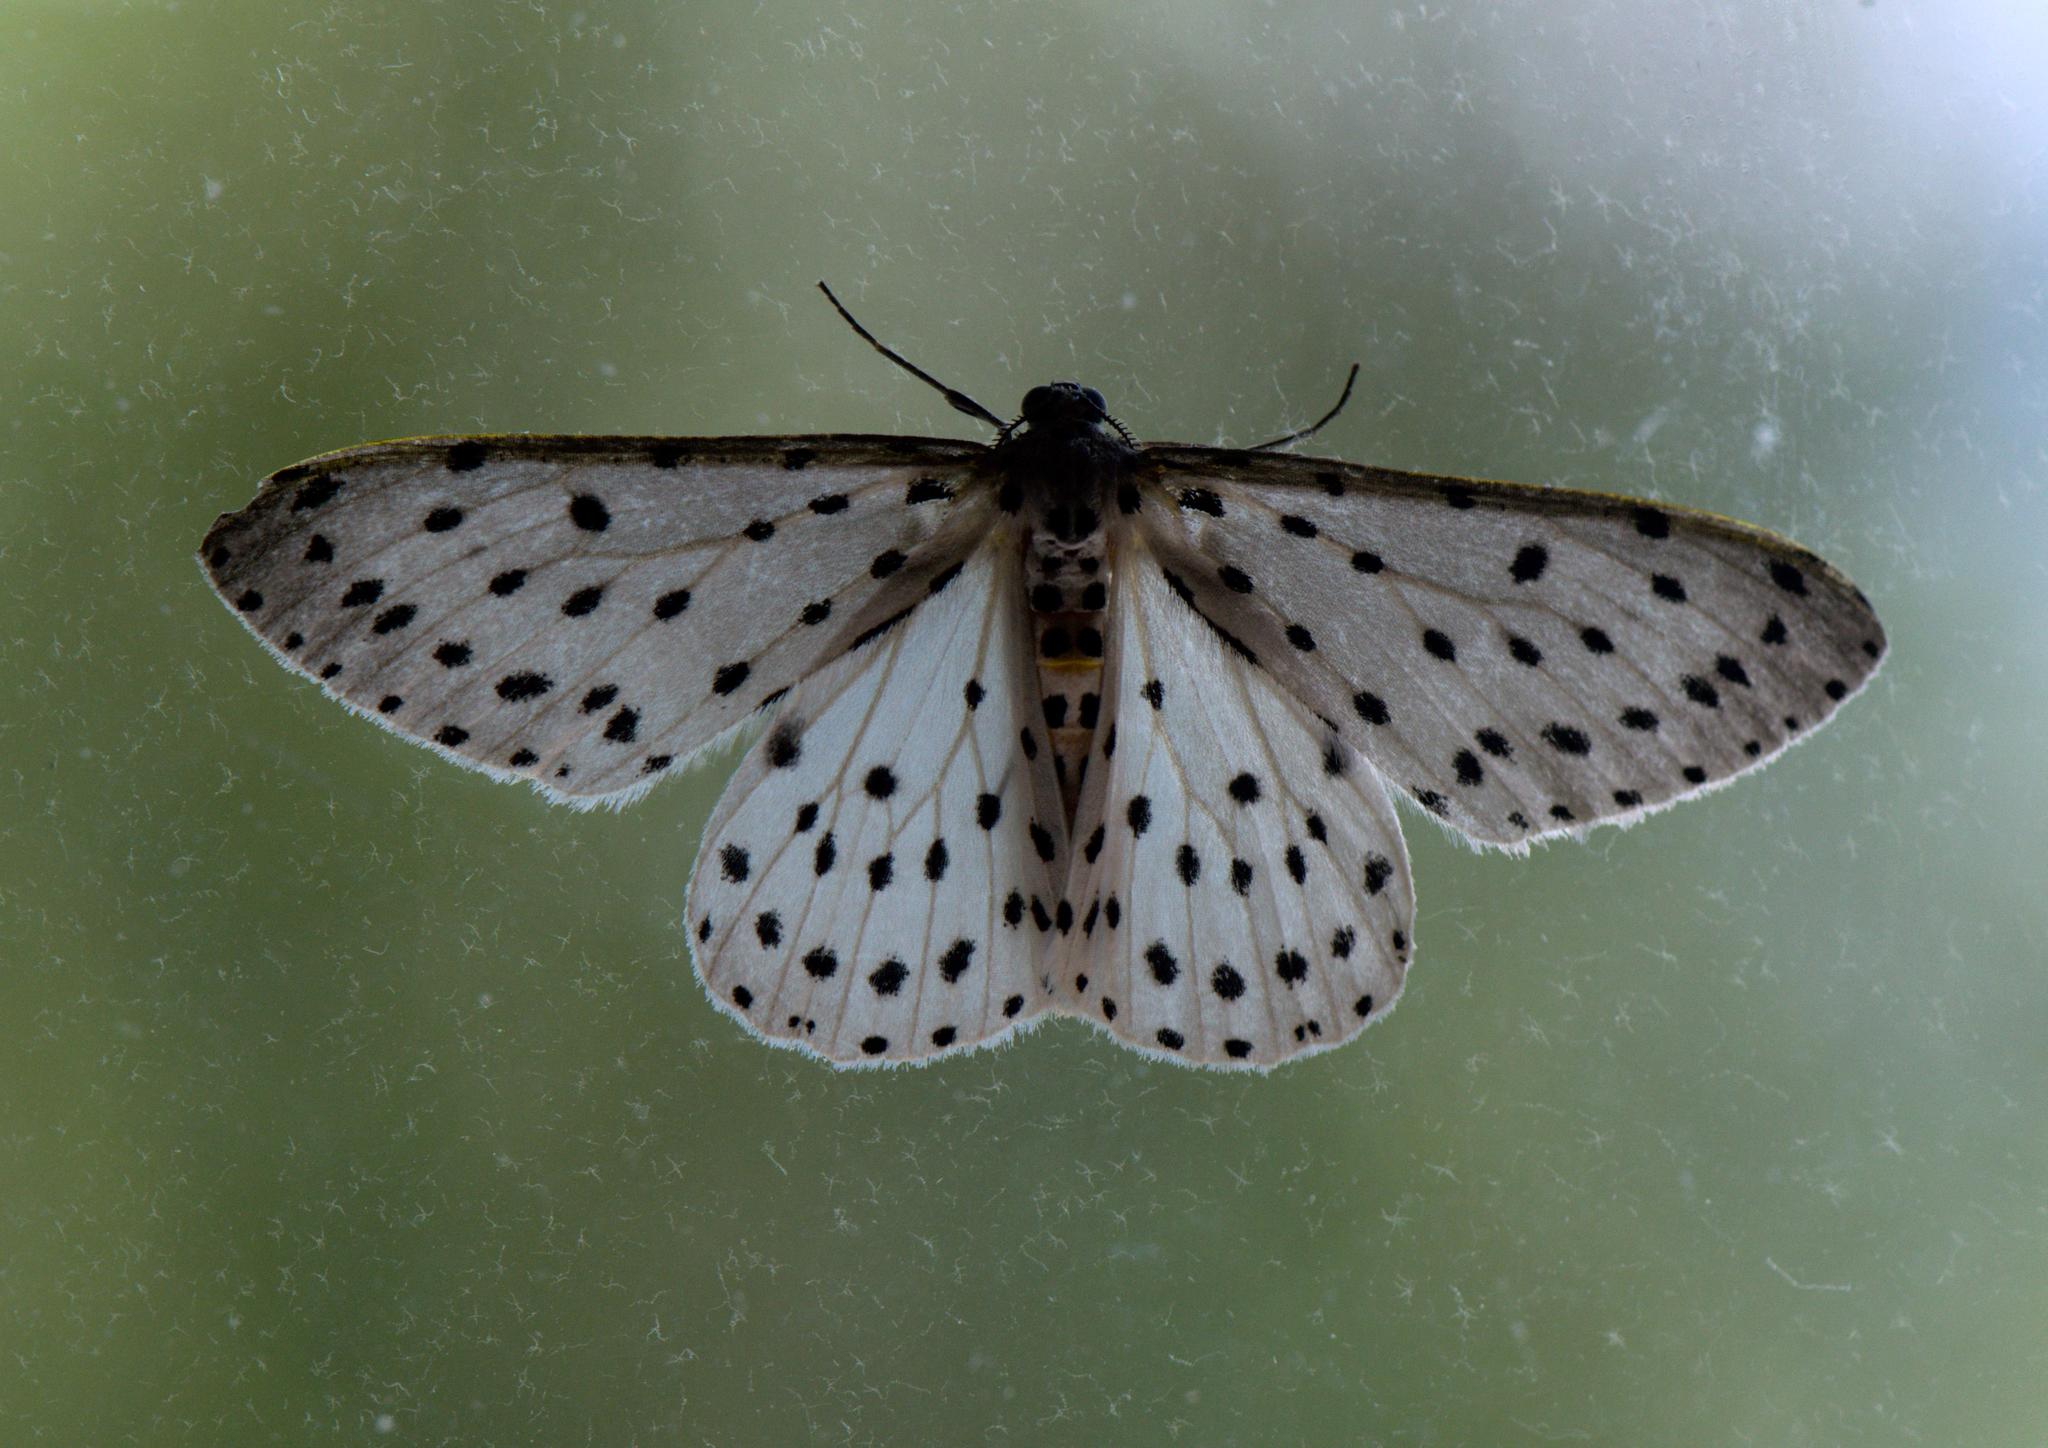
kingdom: Animalia
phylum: Arthropoda
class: Insecta
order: Lepidoptera
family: Geometridae
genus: Antipercnia
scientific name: Antipercnia belluaria
